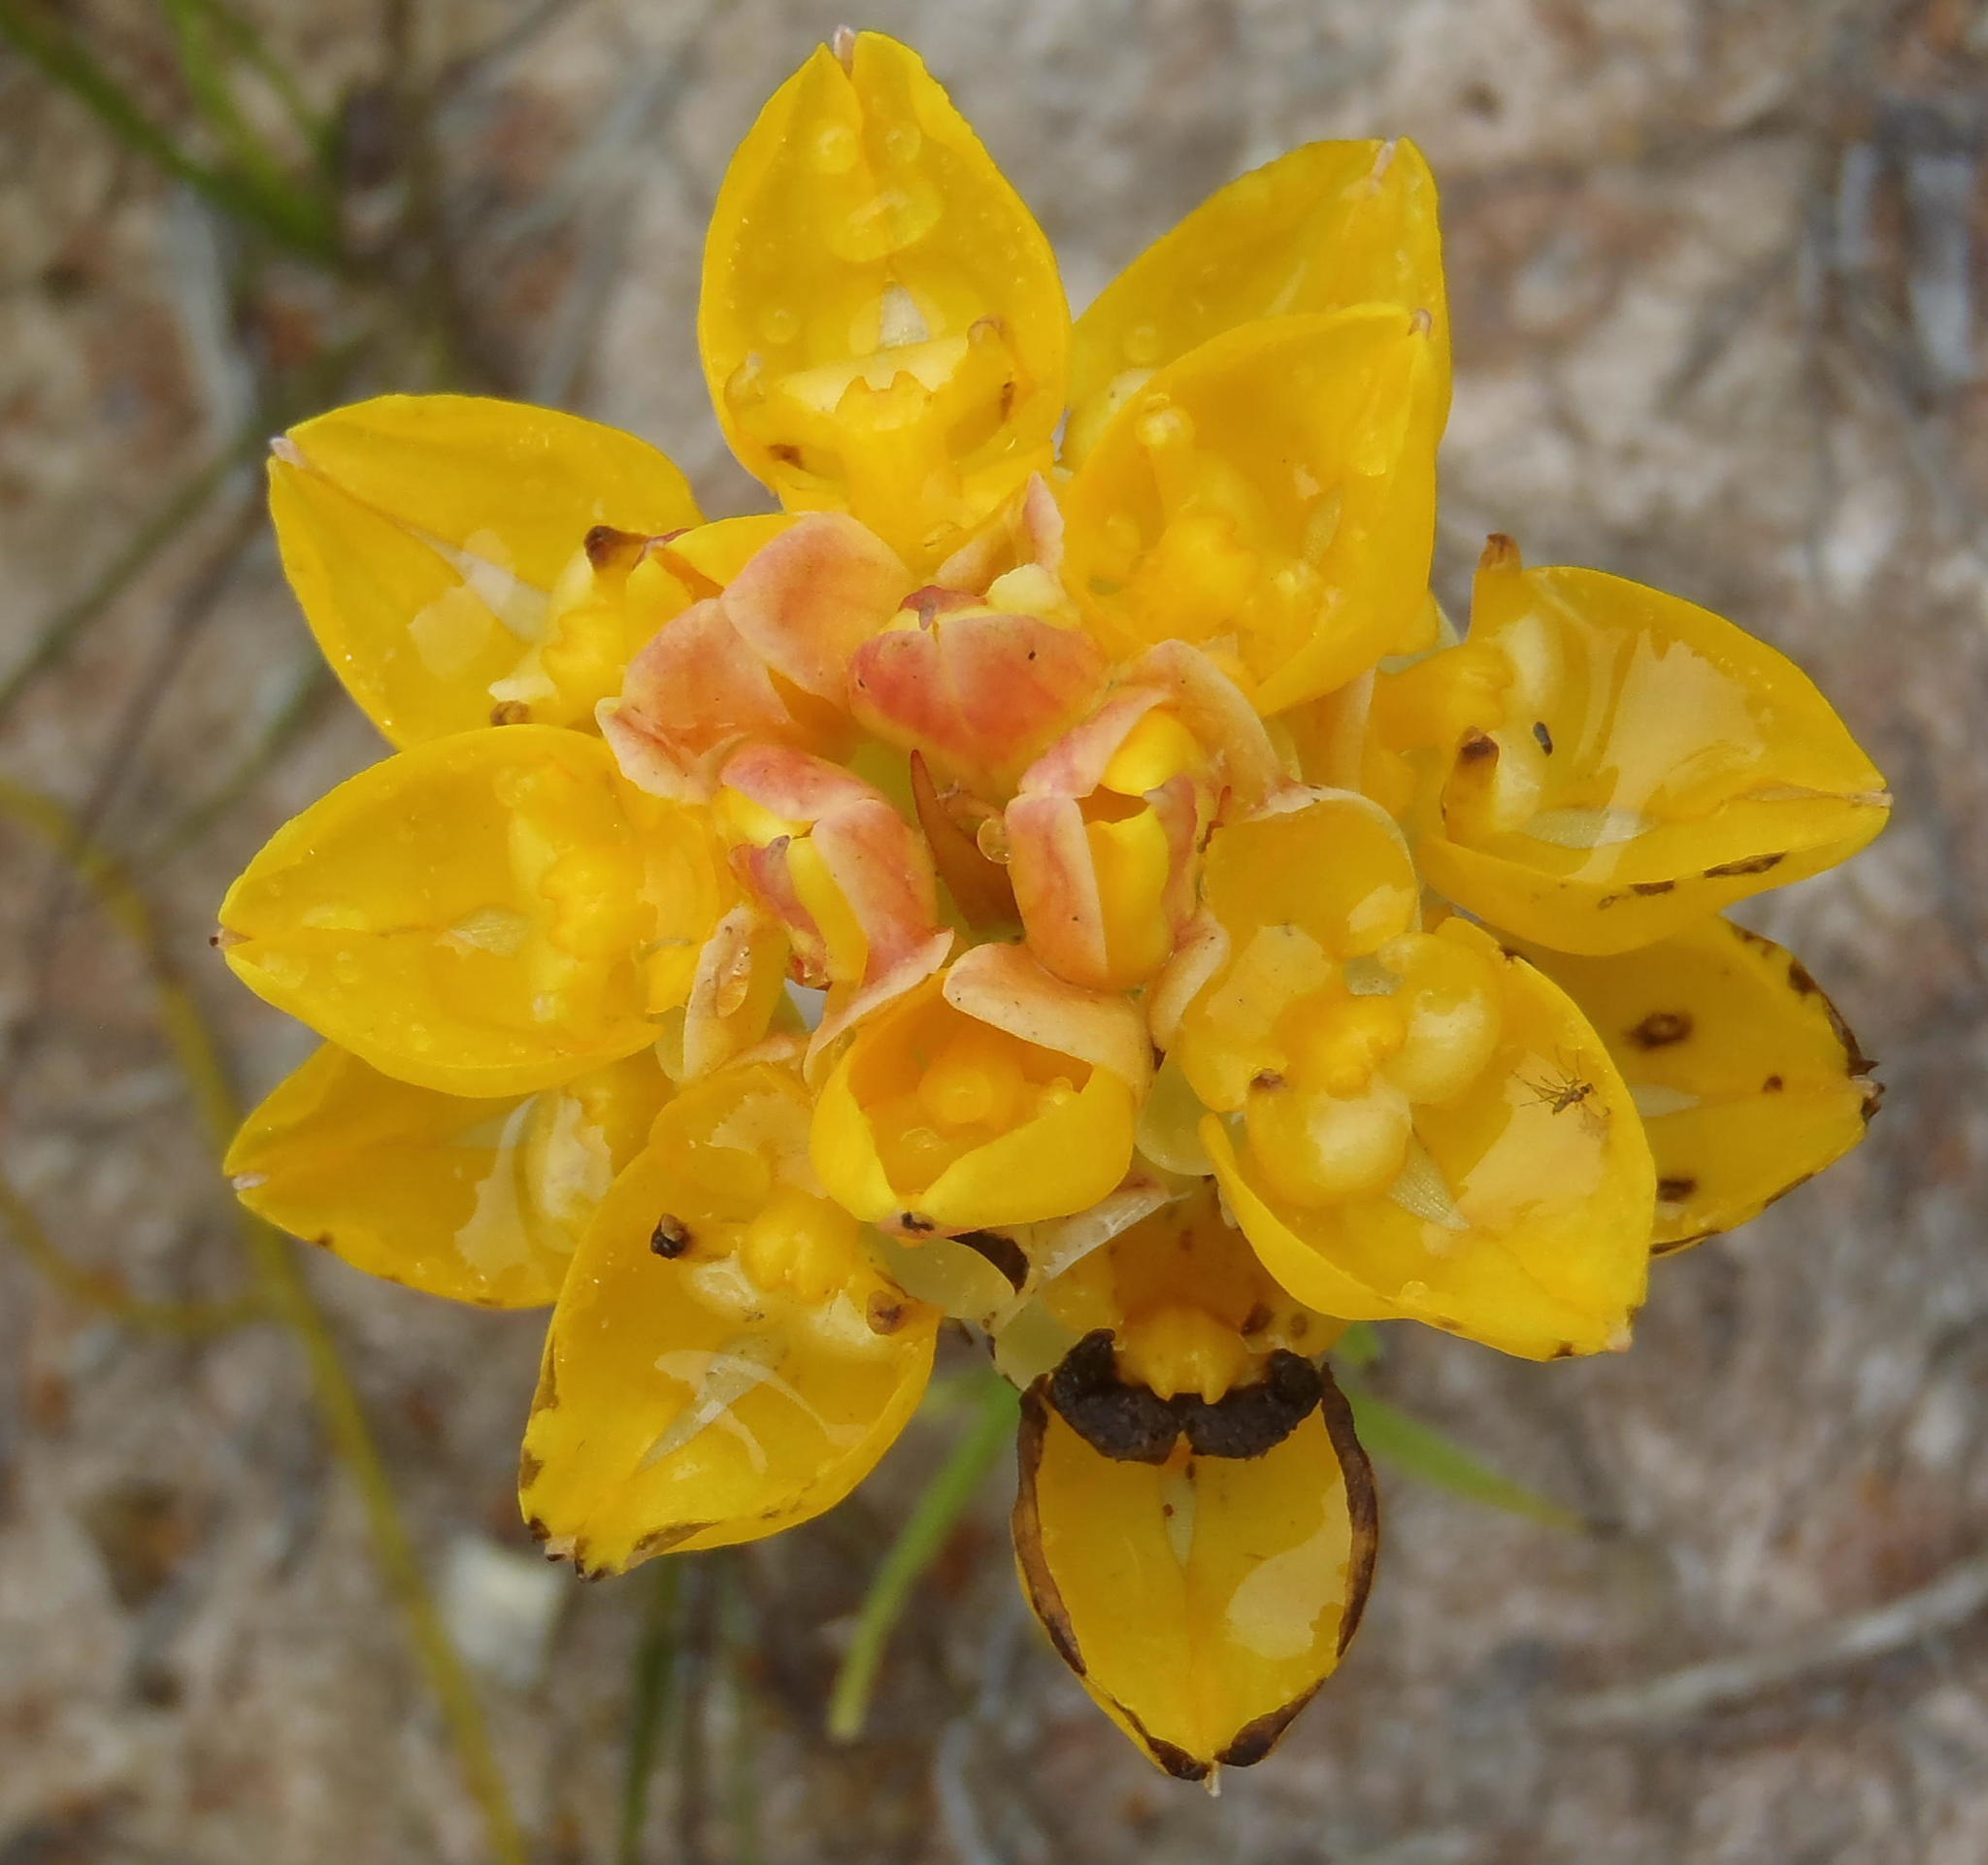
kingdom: Plantae
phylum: Tracheophyta
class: Liliopsida
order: Asparagales
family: Orchidaceae
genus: Ceratandra
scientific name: Ceratandra grandiflora
